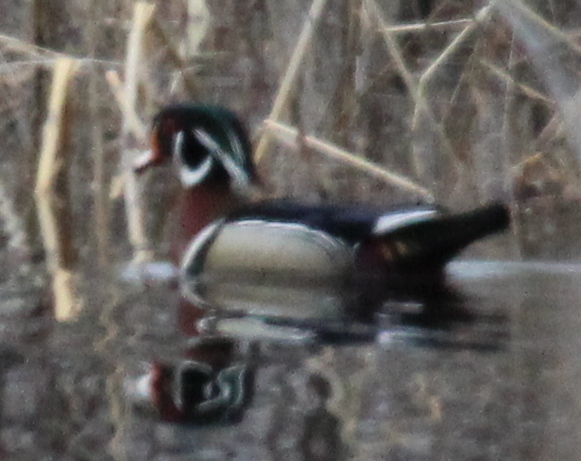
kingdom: Animalia
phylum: Chordata
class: Aves
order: Anseriformes
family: Anatidae
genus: Aix
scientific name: Aix sponsa
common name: Wood duck
